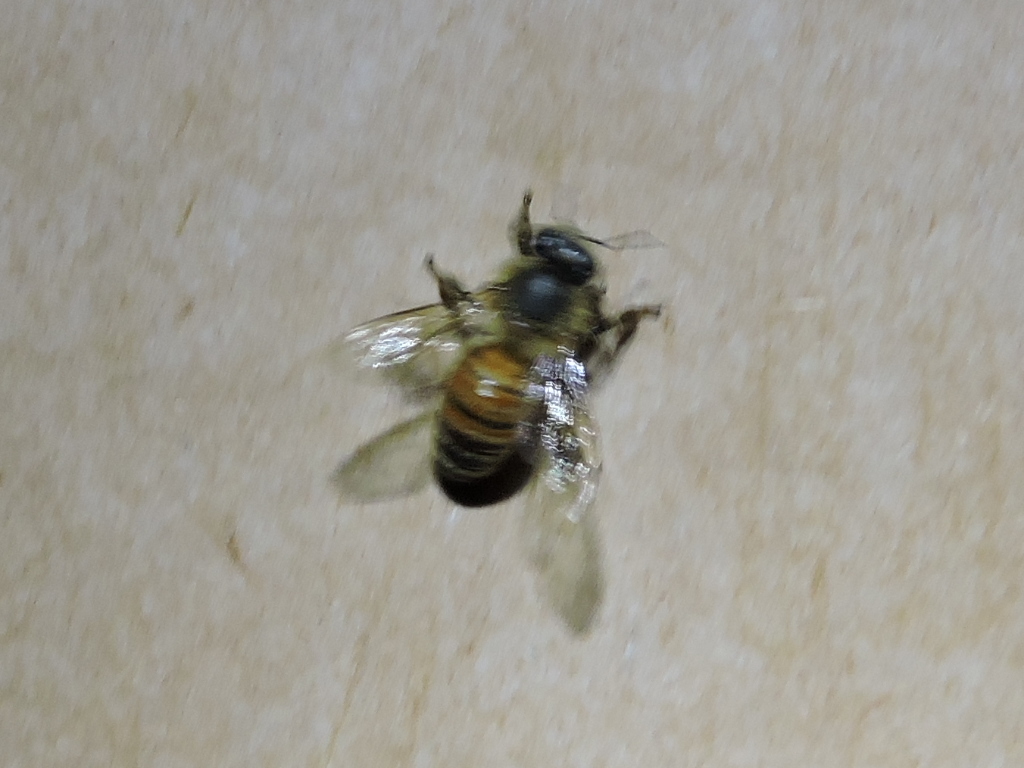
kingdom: Animalia
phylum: Arthropoda
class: Insecta
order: Hymenoptera
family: Apidae
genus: Apis
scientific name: Apis mellifera
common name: Honey bee
